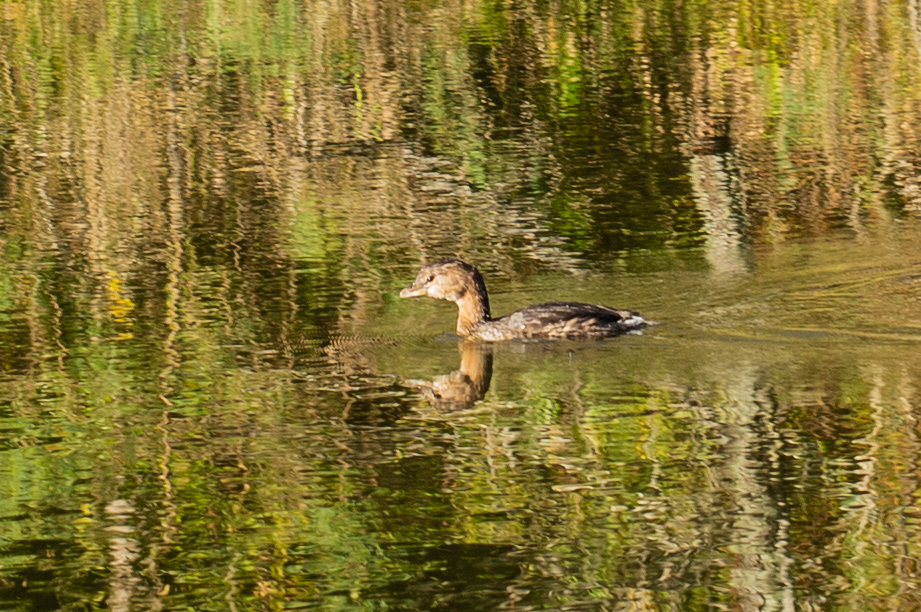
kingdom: Animalia
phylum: Chordata
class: Aves
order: Podicipediformes
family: Podicipedidae
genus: Podilymbus
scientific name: Podilymbus podiceps
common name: Pied-billed grebe
